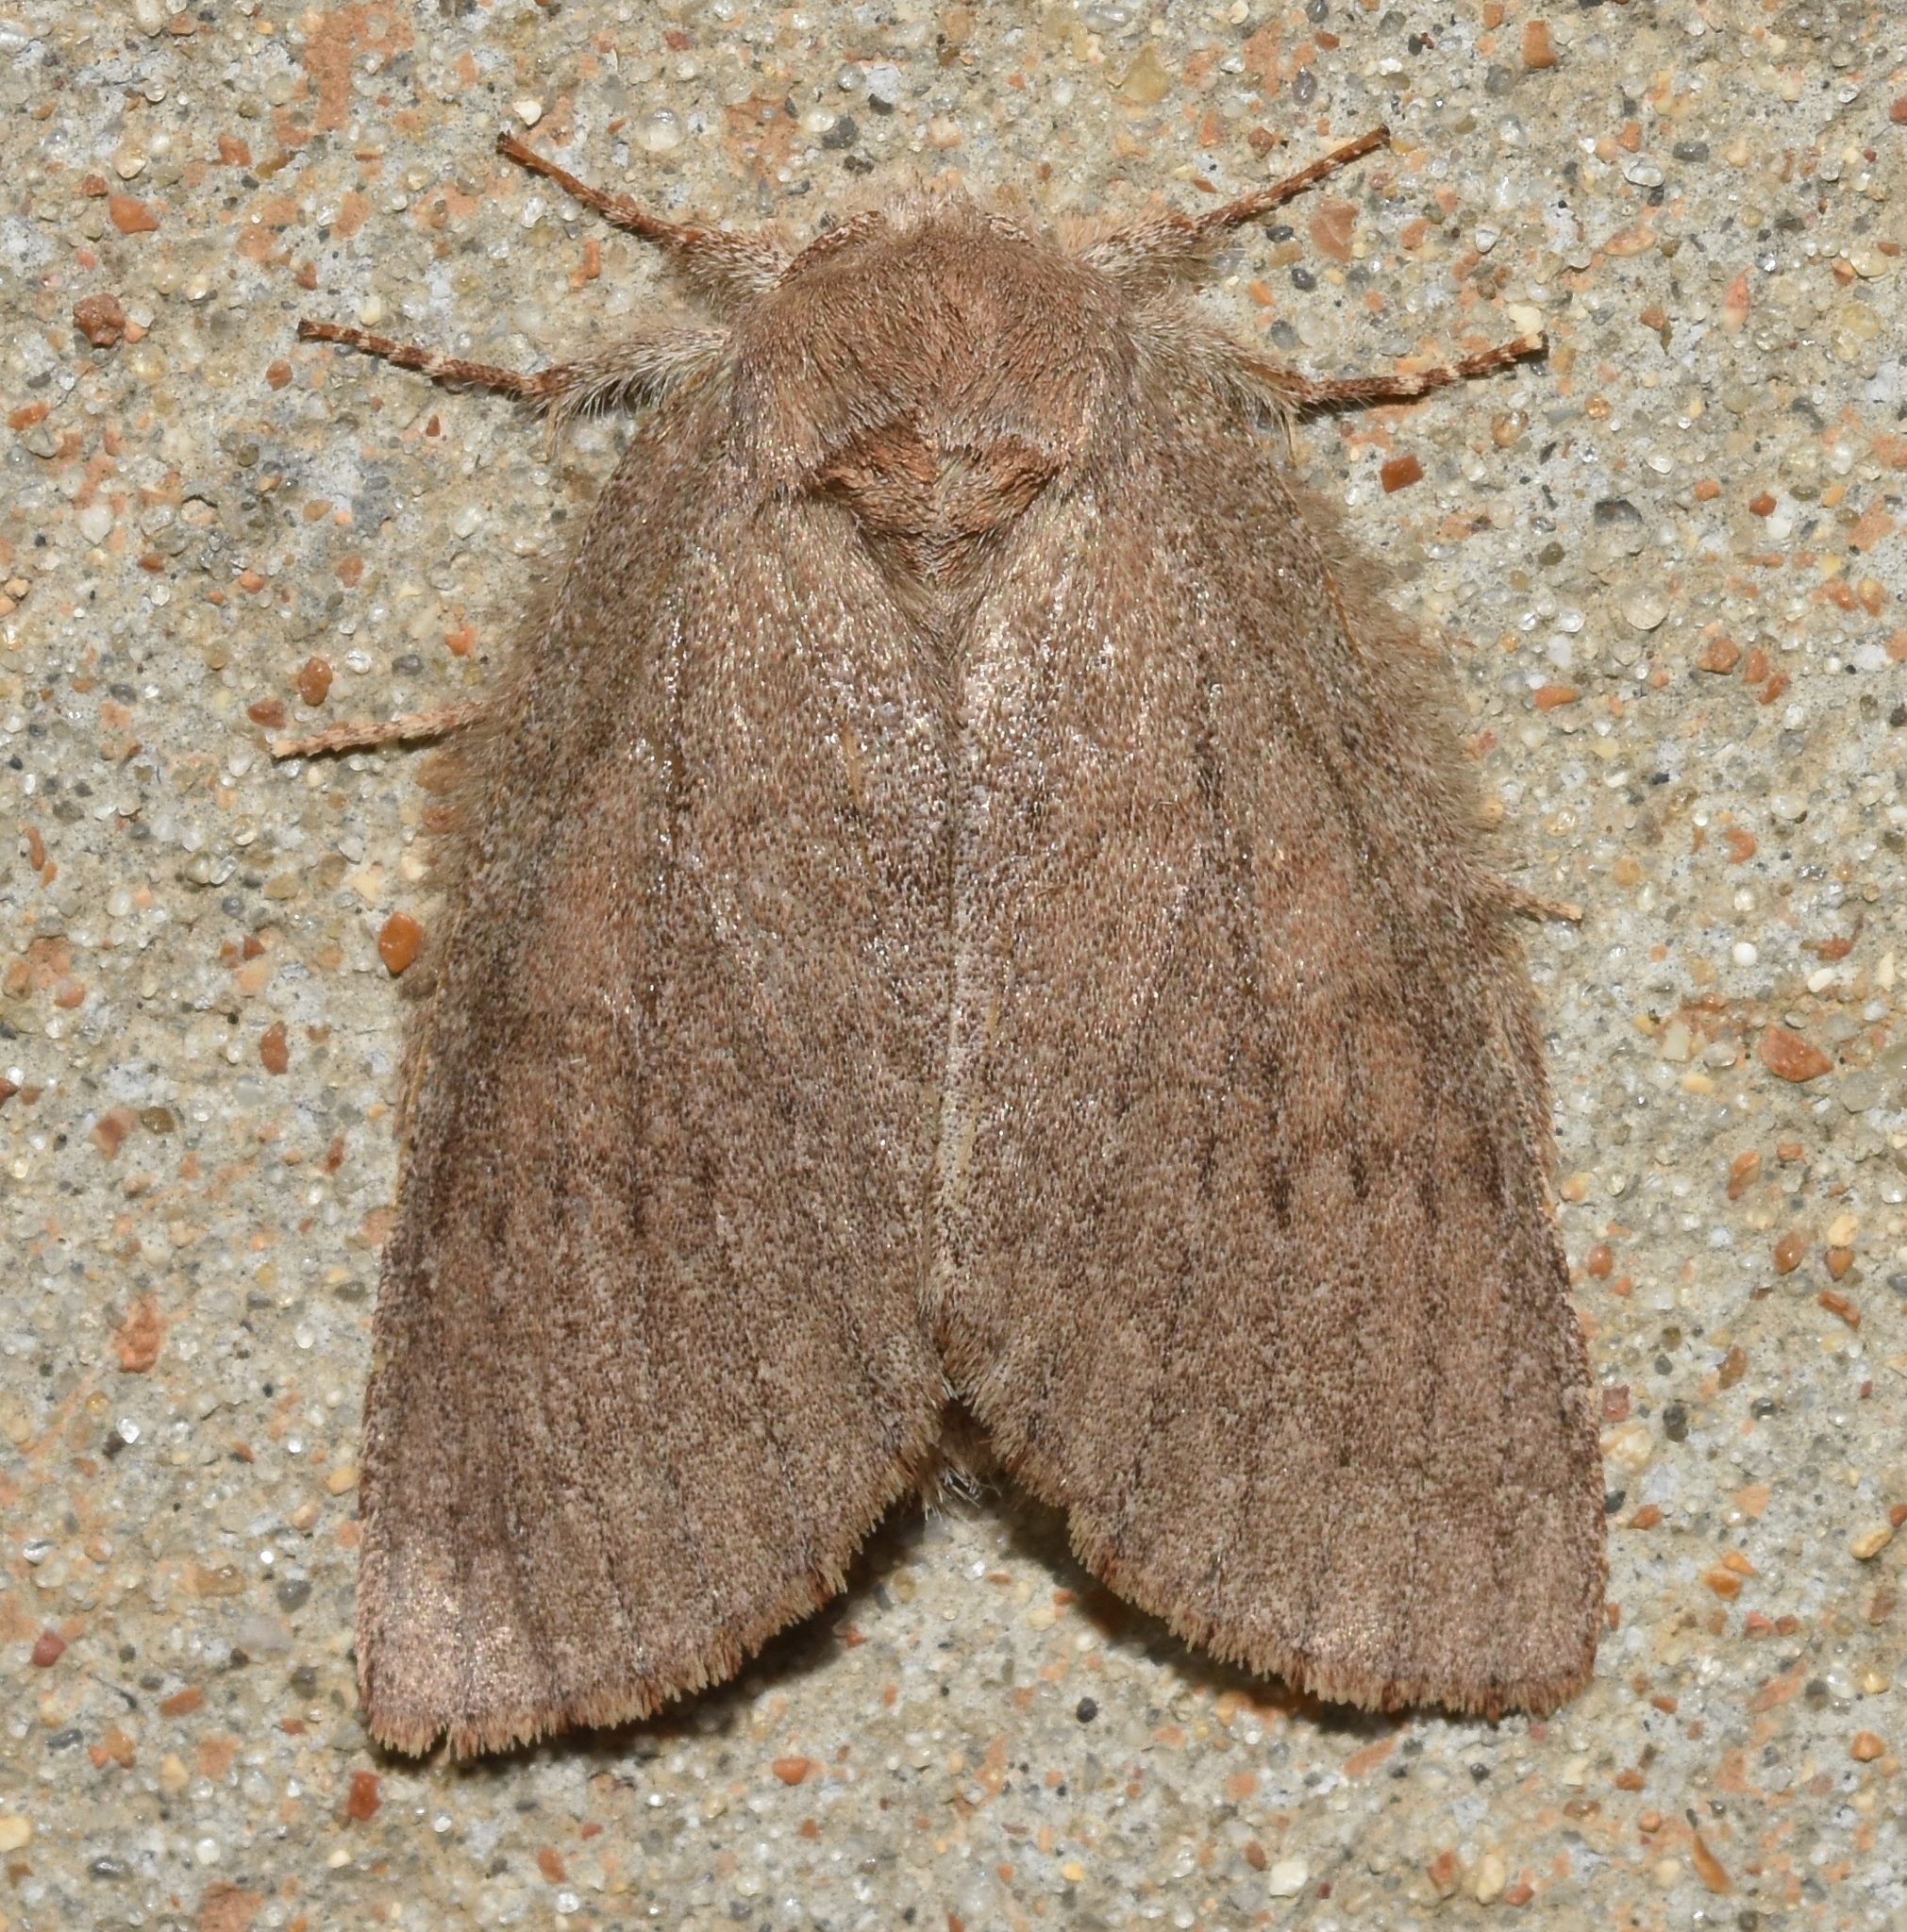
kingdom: Animalia
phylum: Arthropoda
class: Insecta
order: Lepidoptera
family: Notodontidae
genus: Misogada
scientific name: Misogada unicolor
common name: Drab prominent
